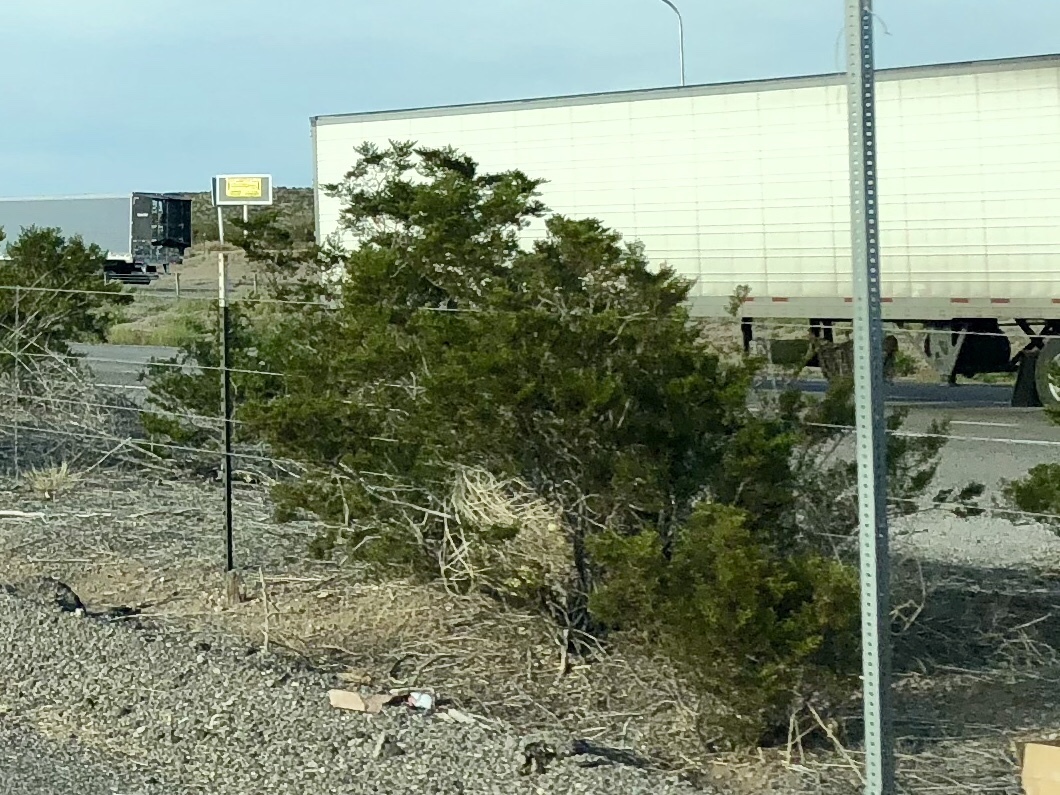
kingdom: Plantae
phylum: Tracheophyta
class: Magnoliopsida
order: Zygophyllales
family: Zygophyllaceae
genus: Larrea
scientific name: Larrea tridentata
